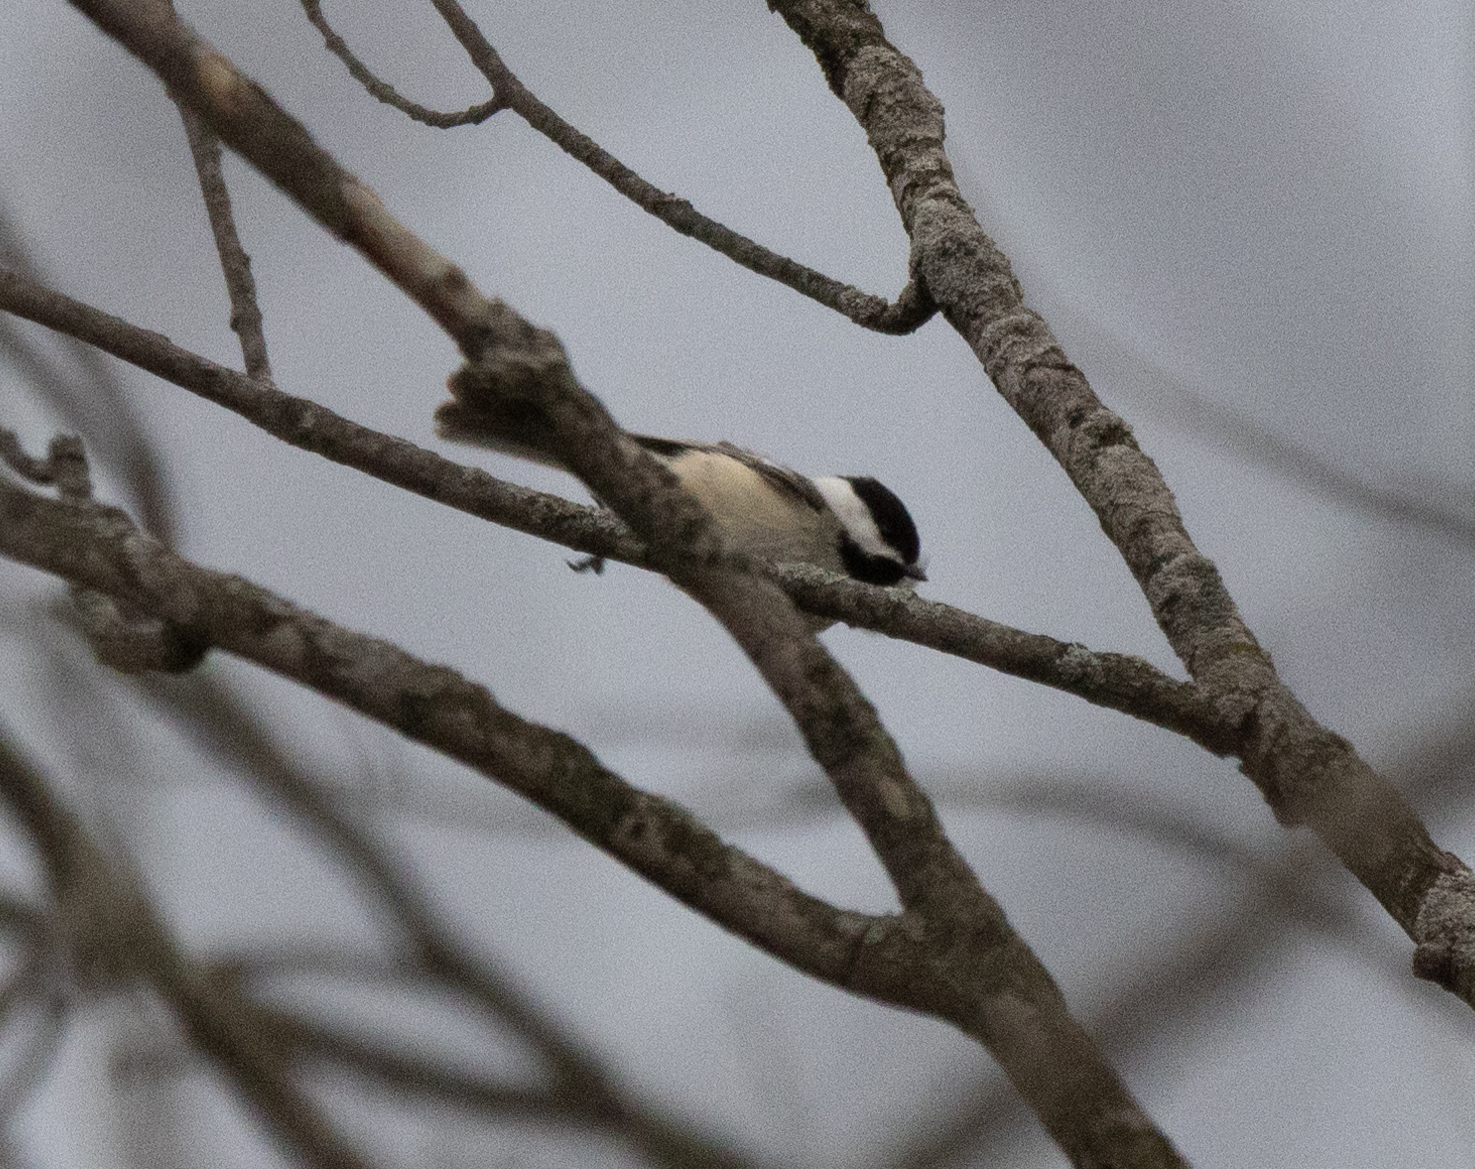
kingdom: Animalia
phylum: Chordata
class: Aves
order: Passeriformes
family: Paridae
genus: Poecile
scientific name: Poecile atricapillus
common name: Black-capped chickadee
